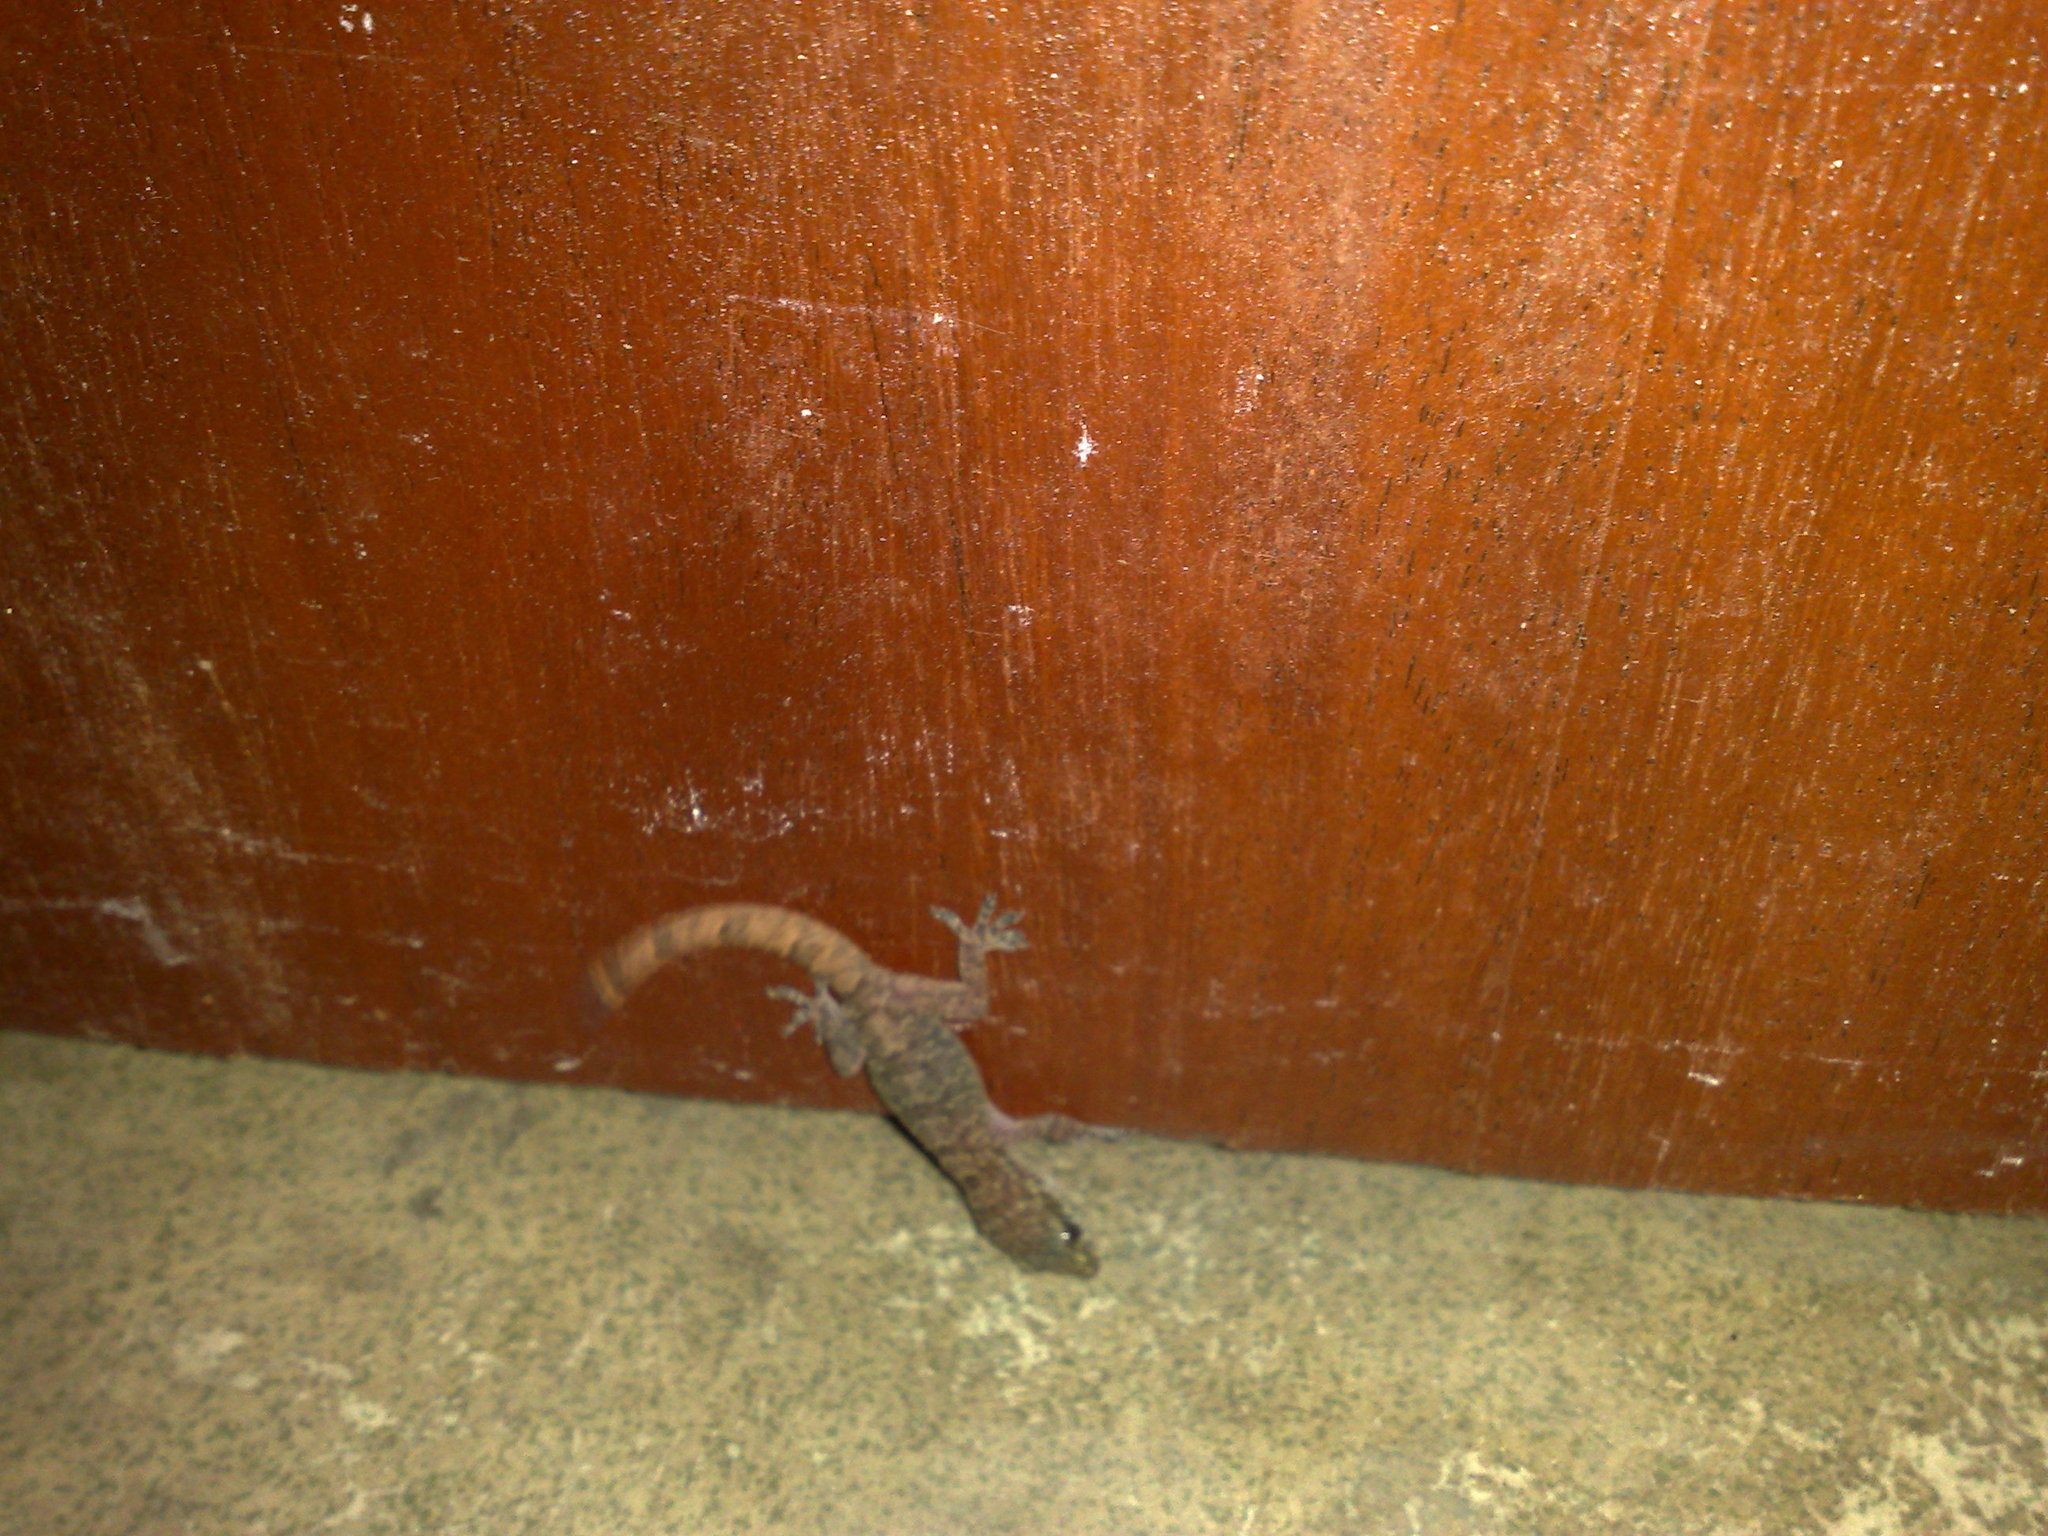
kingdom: Animalia
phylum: Chordata
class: Squamata
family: Gekkonidae
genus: Hemidactylus
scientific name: Hemidactylus angulatus
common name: Brook's house gecko
